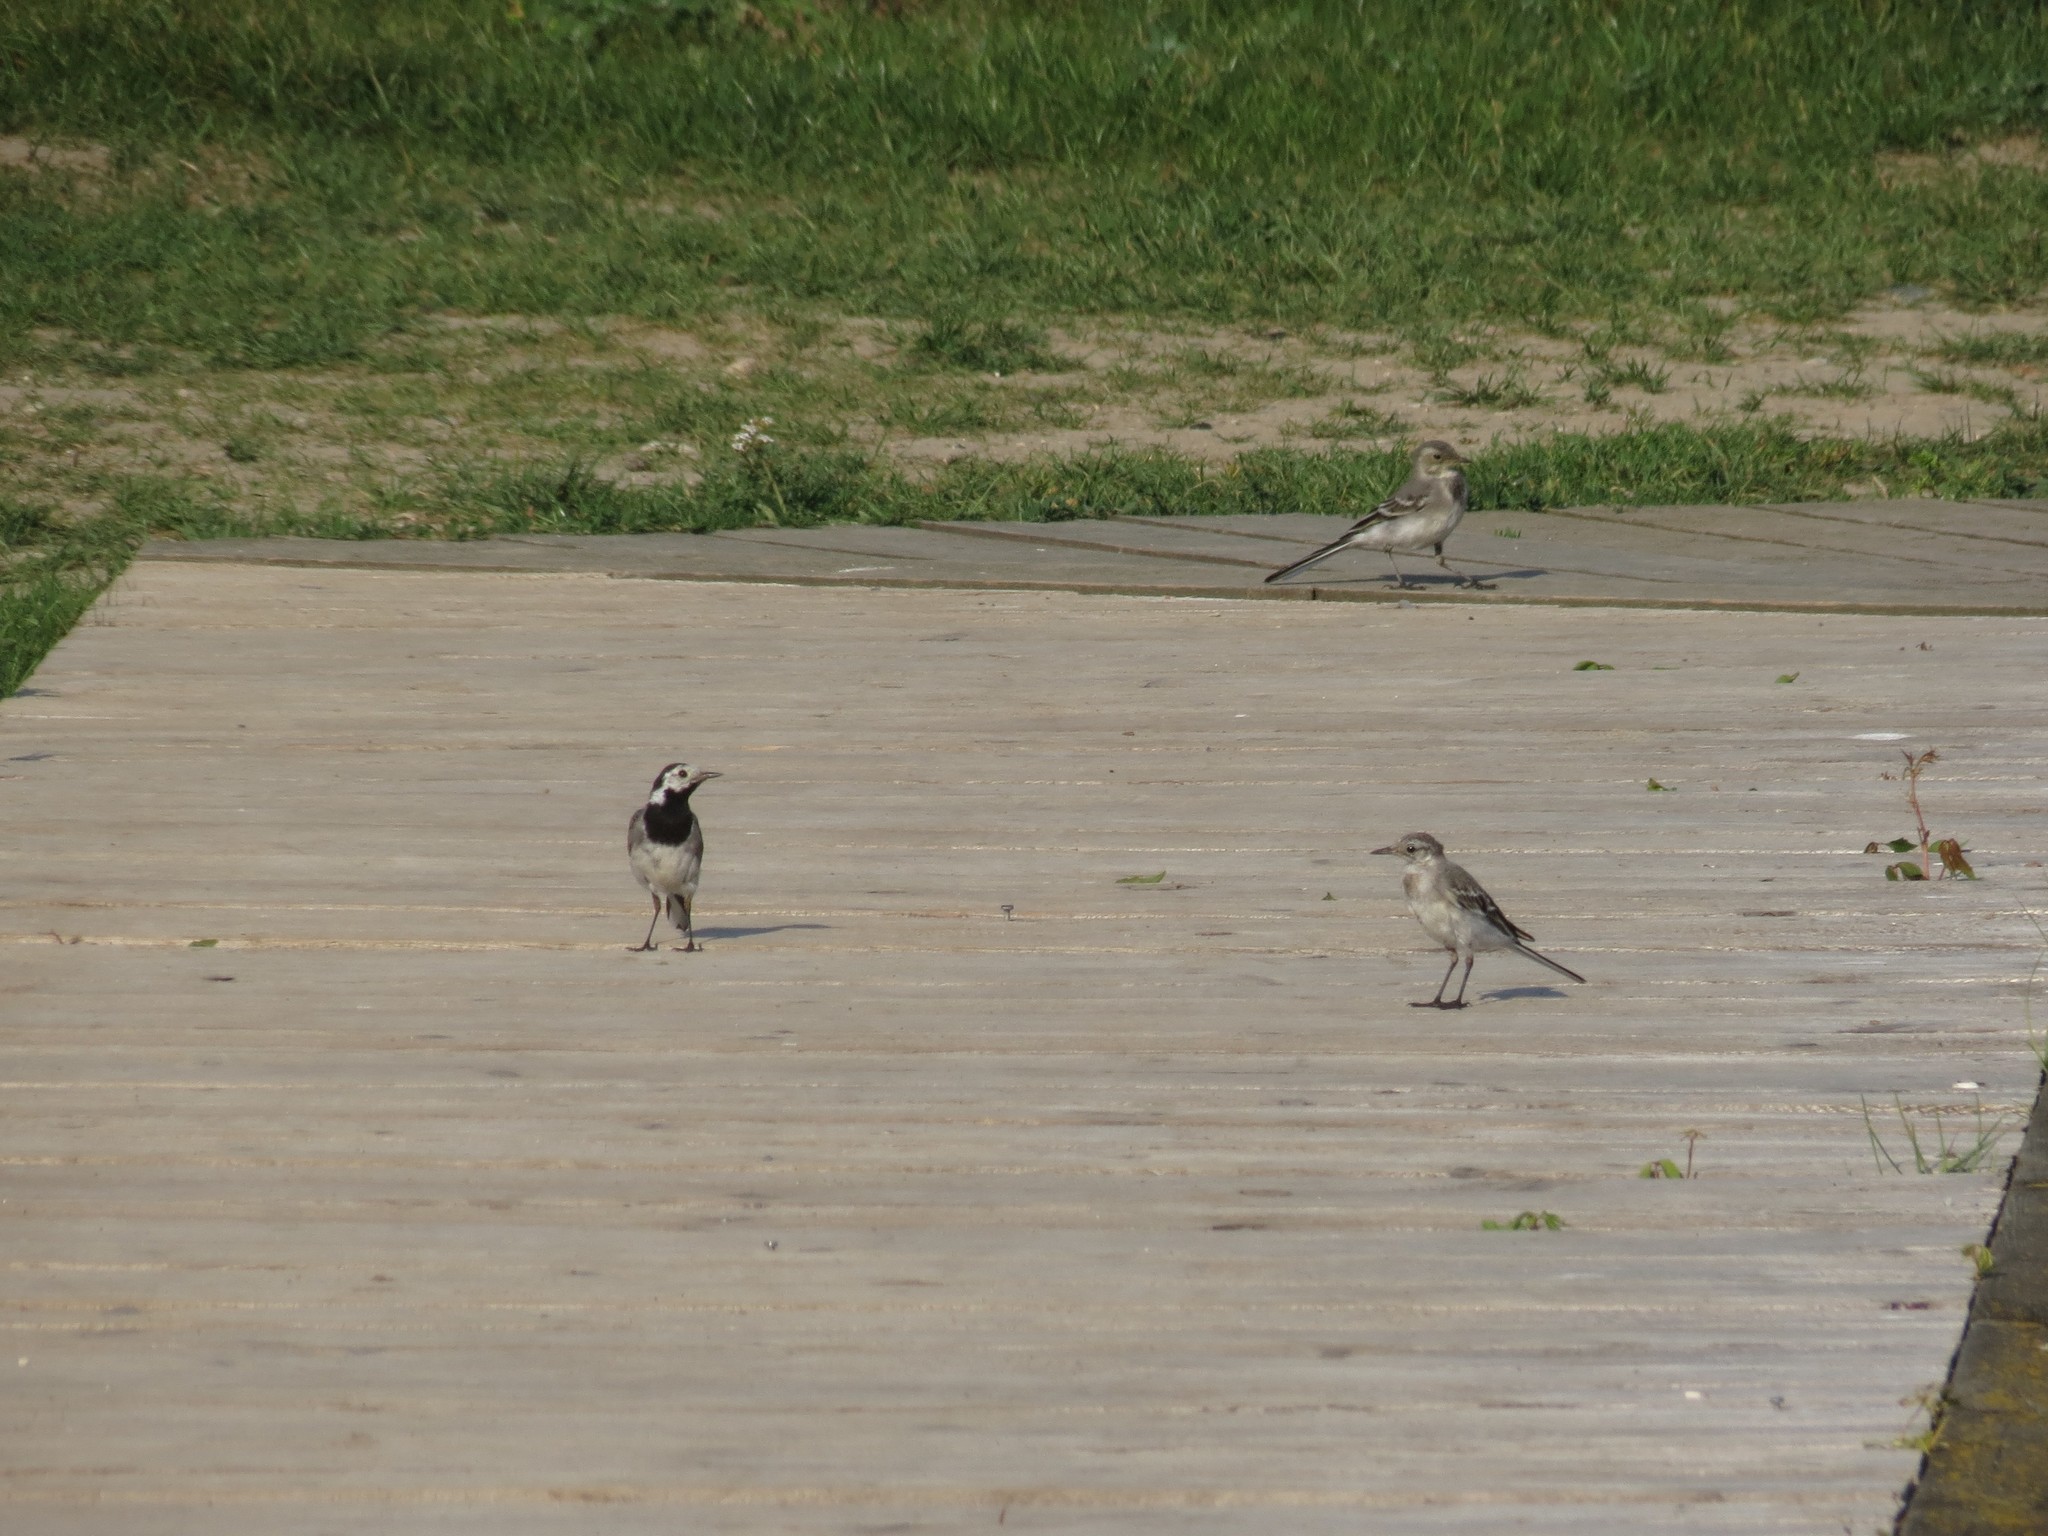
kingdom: Animalia
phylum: Chordata
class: Aves
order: Passeriformes
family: Motacillidae
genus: Motacilla
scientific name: Motacilla alba
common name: White wagtail
